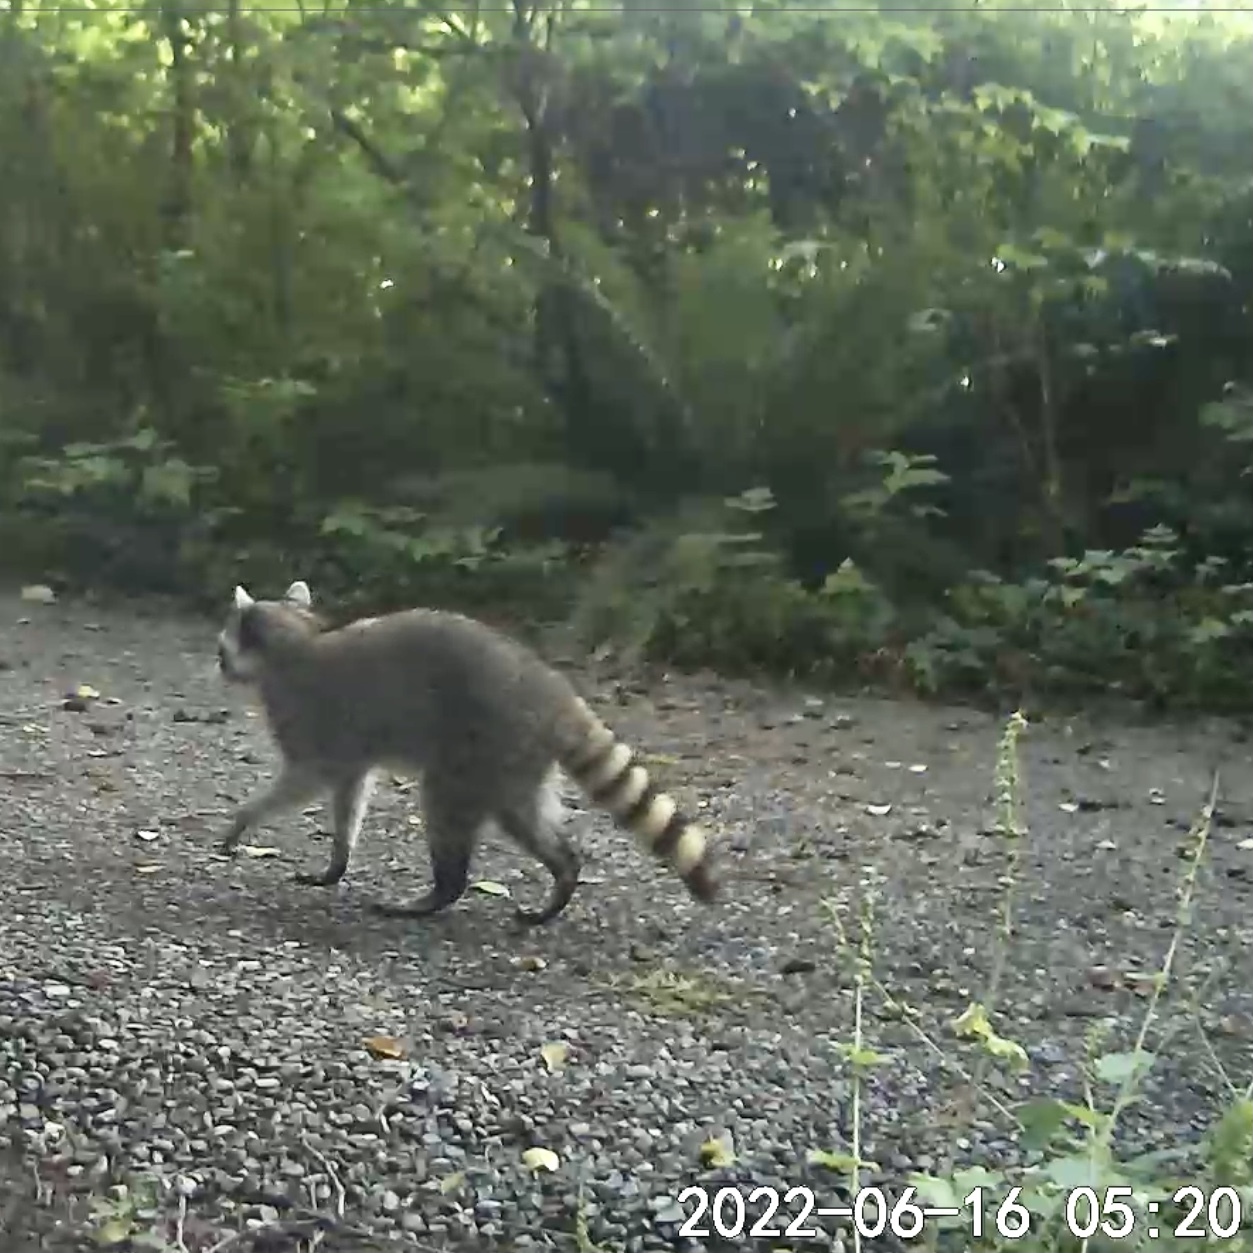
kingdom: Animalia
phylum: Chordata
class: Mammalia
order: Carnivora
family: Procyonidae
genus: Procyon
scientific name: Procyon lotor
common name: Raccoon
